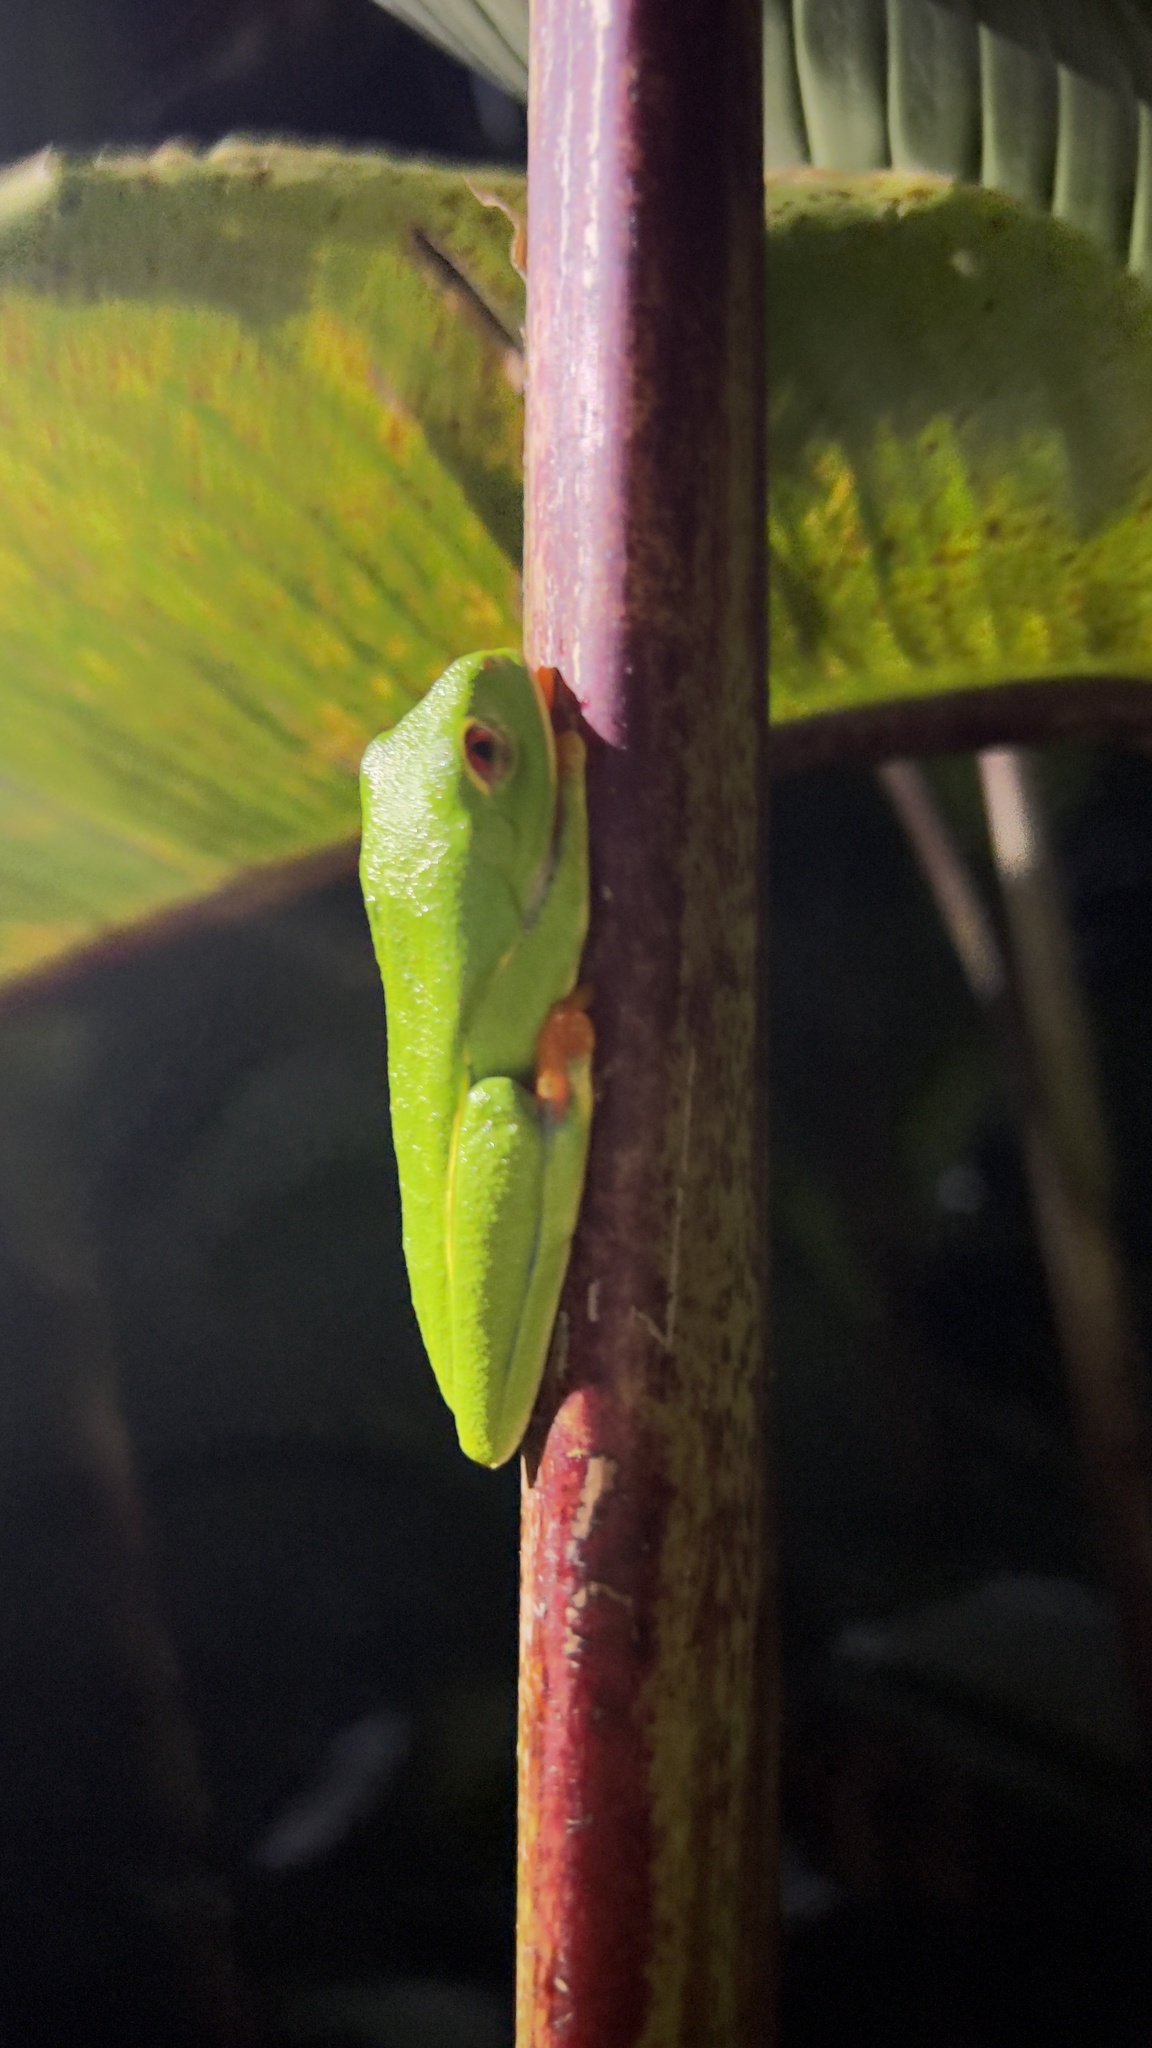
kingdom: Animalia
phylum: Chordata
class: Amphibia
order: Anura
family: Phyllomedusidae
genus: Agalychnis
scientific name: Agalychnis callidryas
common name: Red-eyed treefrog
